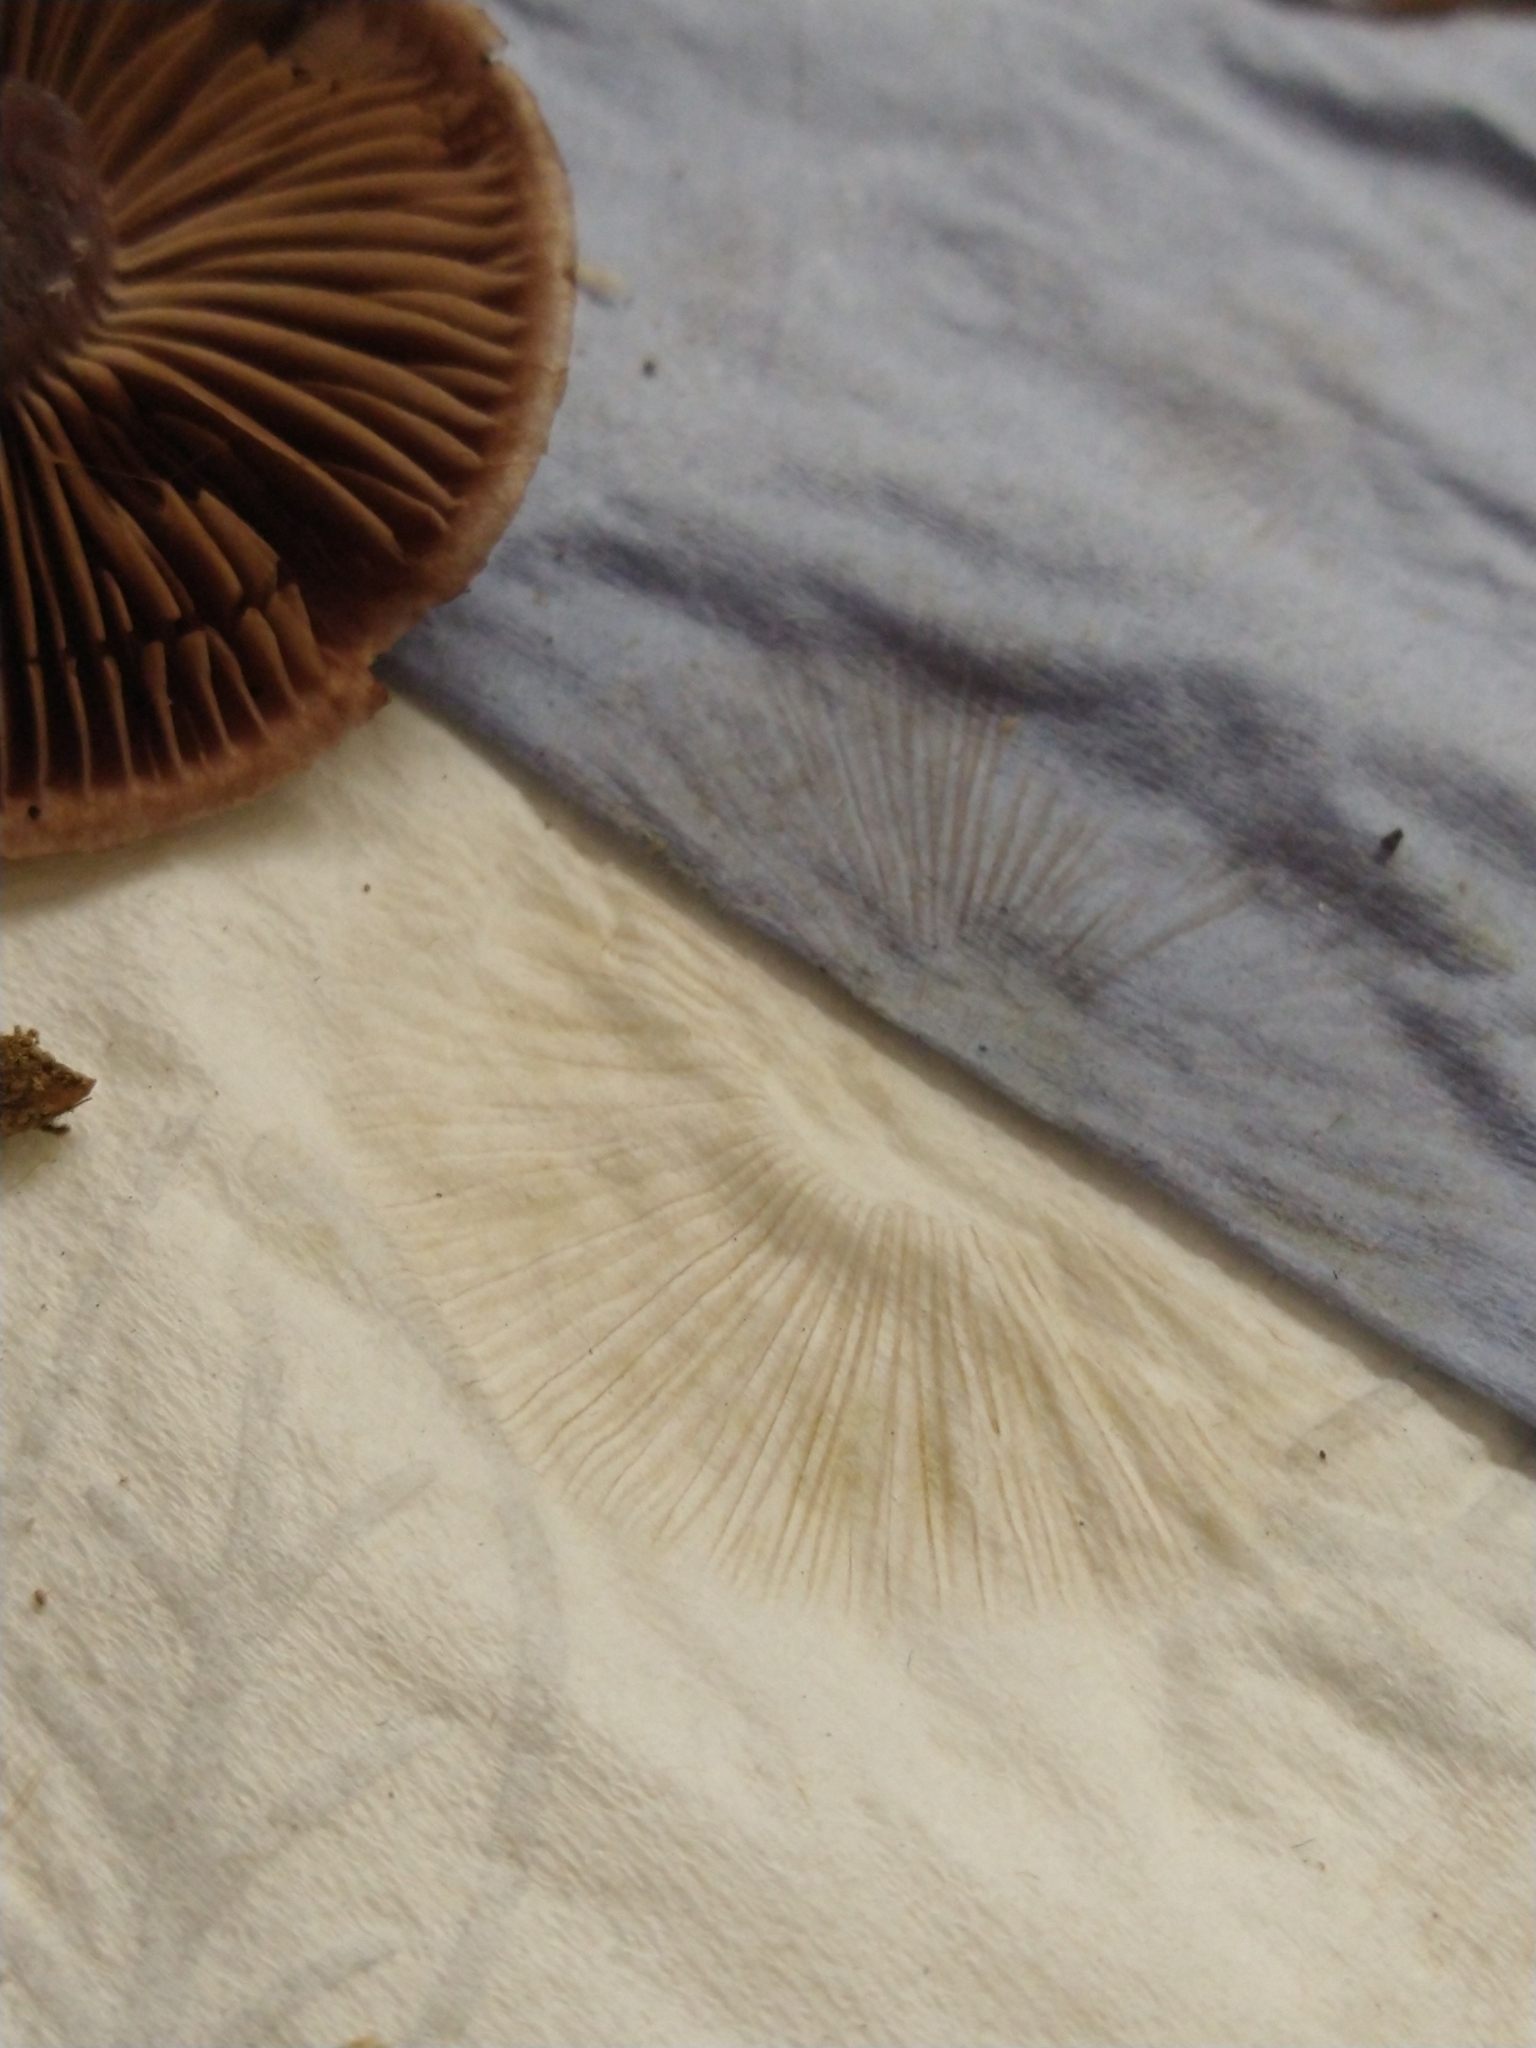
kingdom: Fungi
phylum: Basidiomycota
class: Agaricomycetes
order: Agaricales
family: Cortinariaceae
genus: Cortinarius
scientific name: Cortinarius torvus
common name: Stocking webcap
